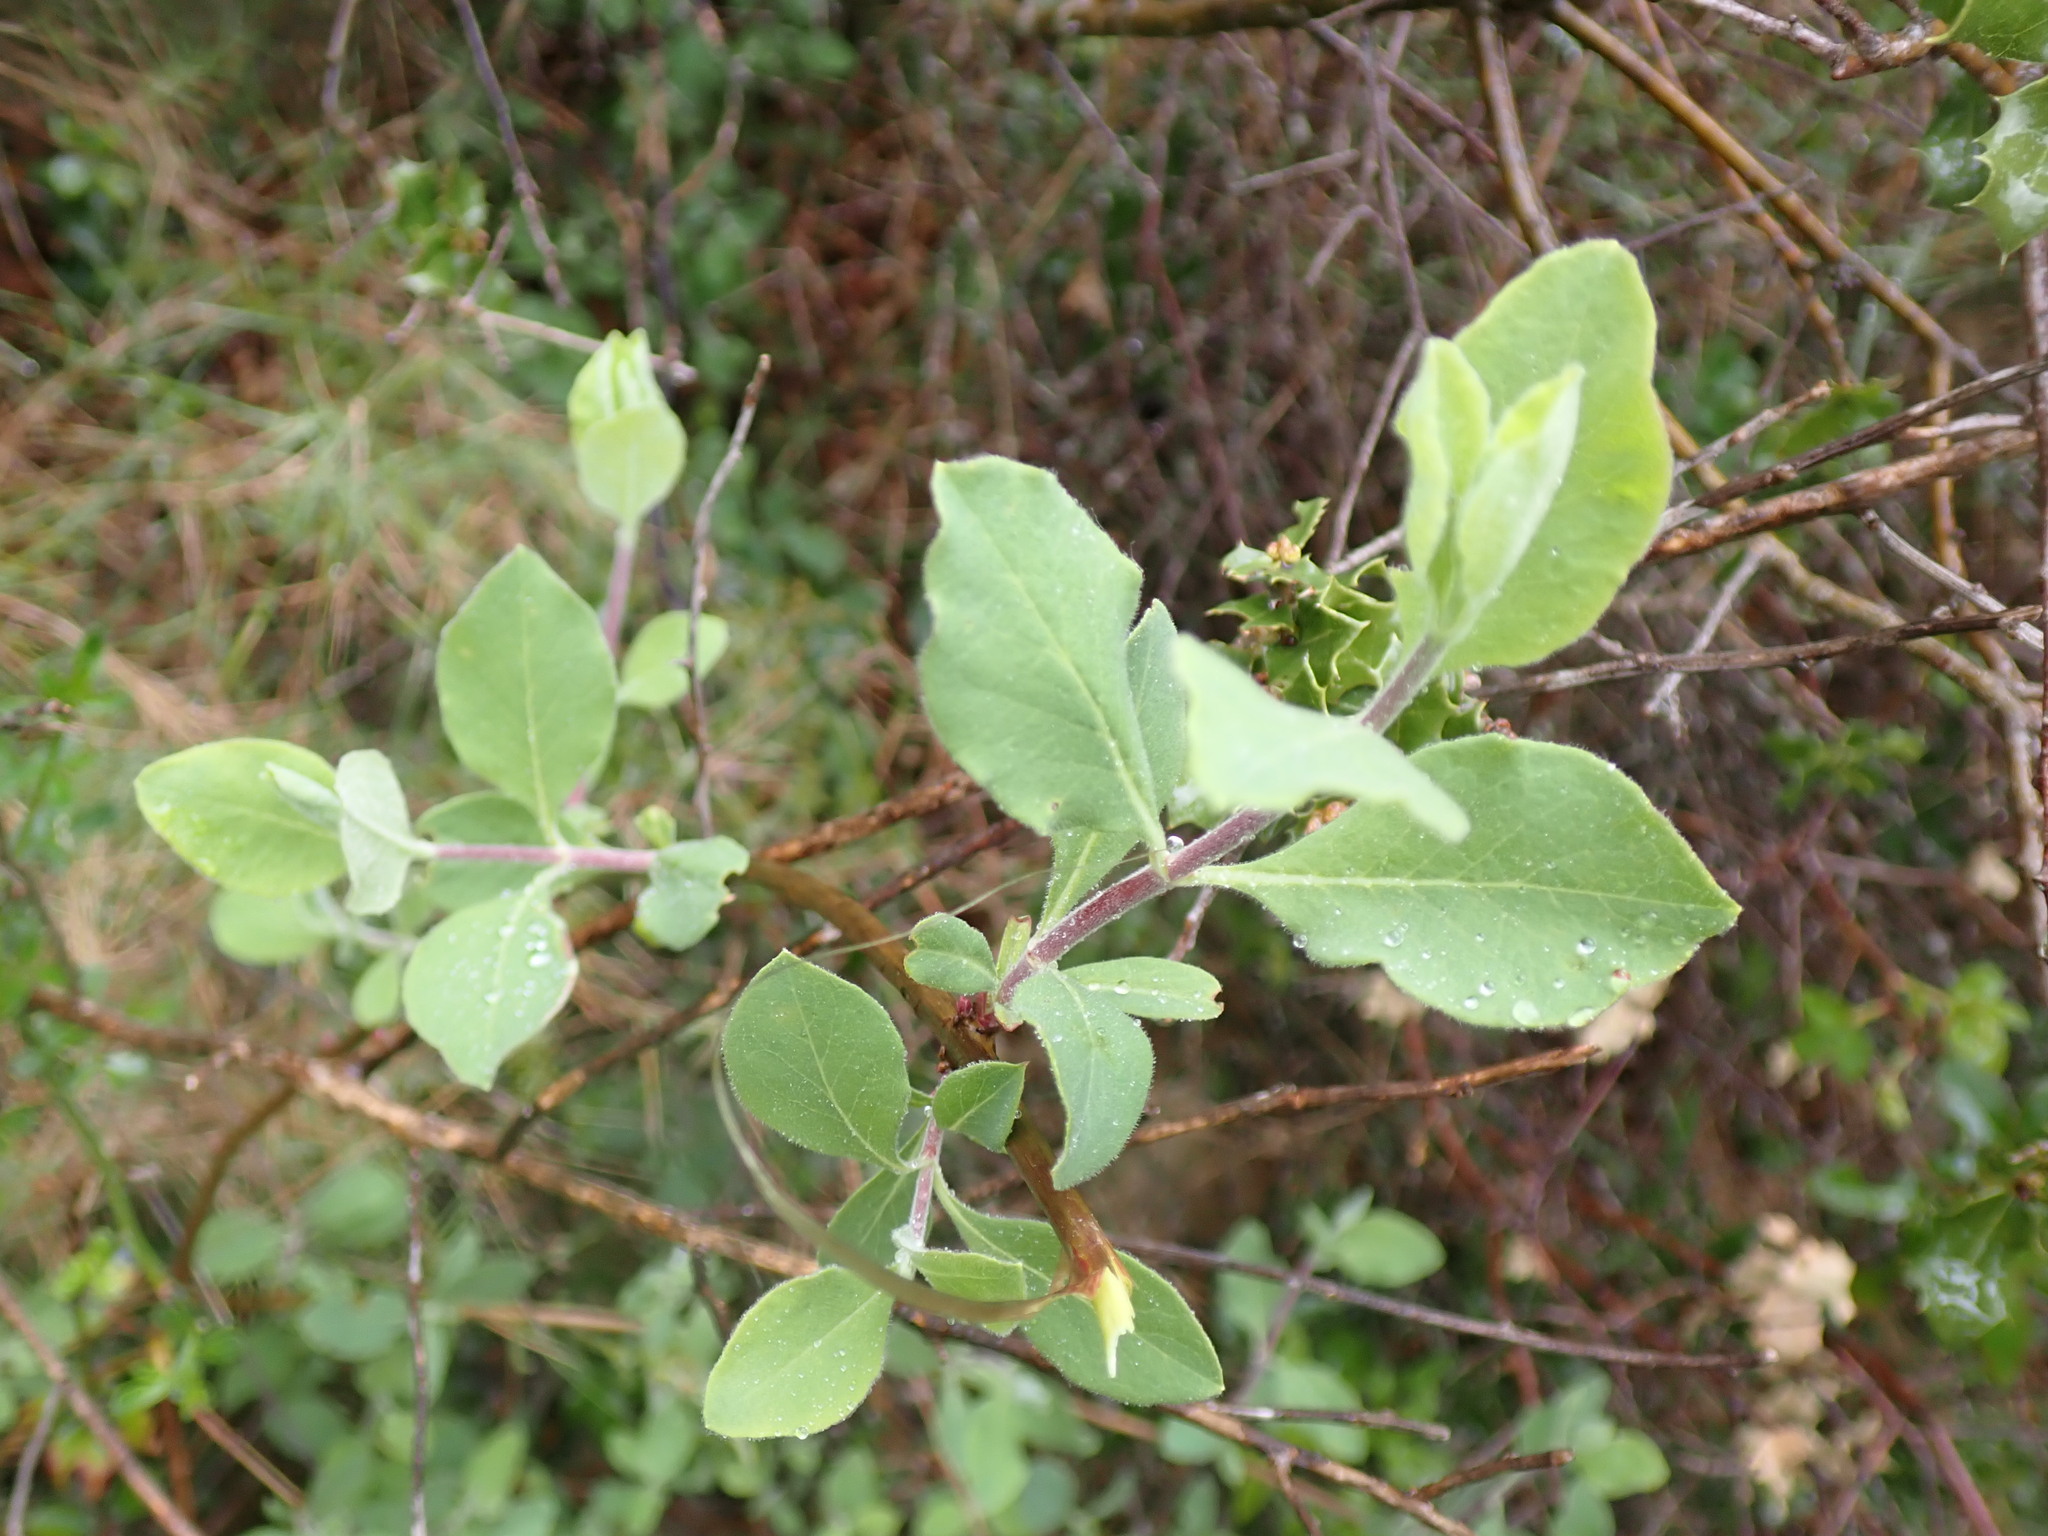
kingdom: Plantae
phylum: Tracheophyta
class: Magnoliopsida
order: Dipsacales
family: Caprifoliaceae
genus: Lonicera
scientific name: Lonicera etrusca
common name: Etruscan honeysuckle
